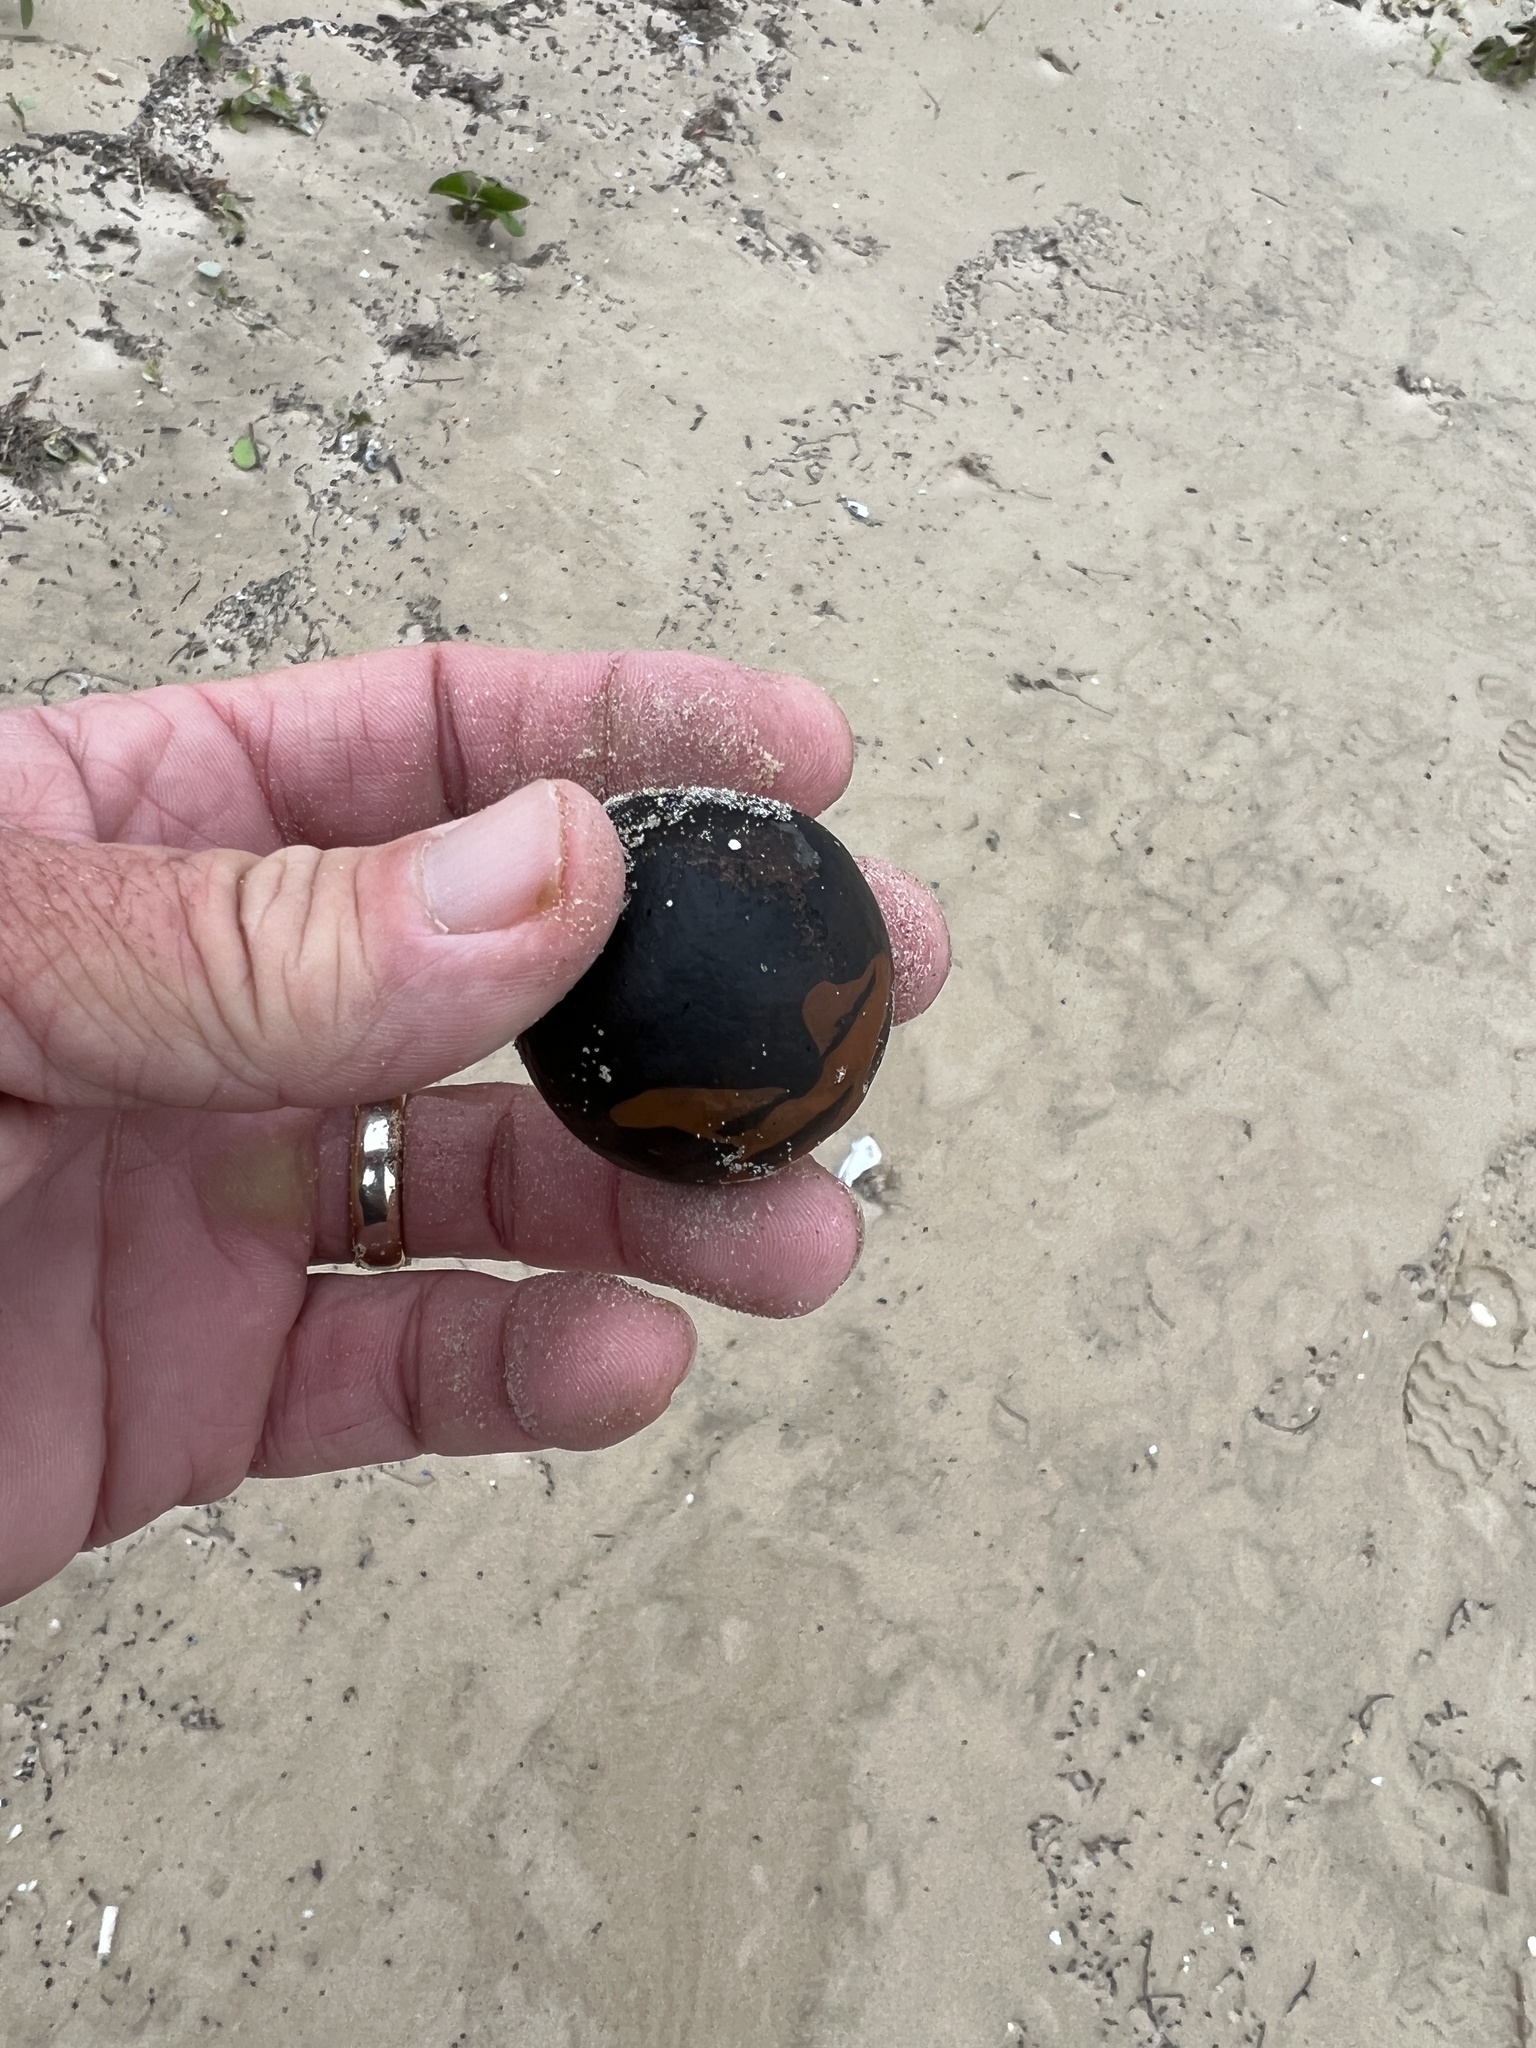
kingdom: Plantae
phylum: Tracheophyta
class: Liliopsida
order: Arecales
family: Arecaceae
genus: Manicaria
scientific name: Manicaria saccifera
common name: Sea coconut
